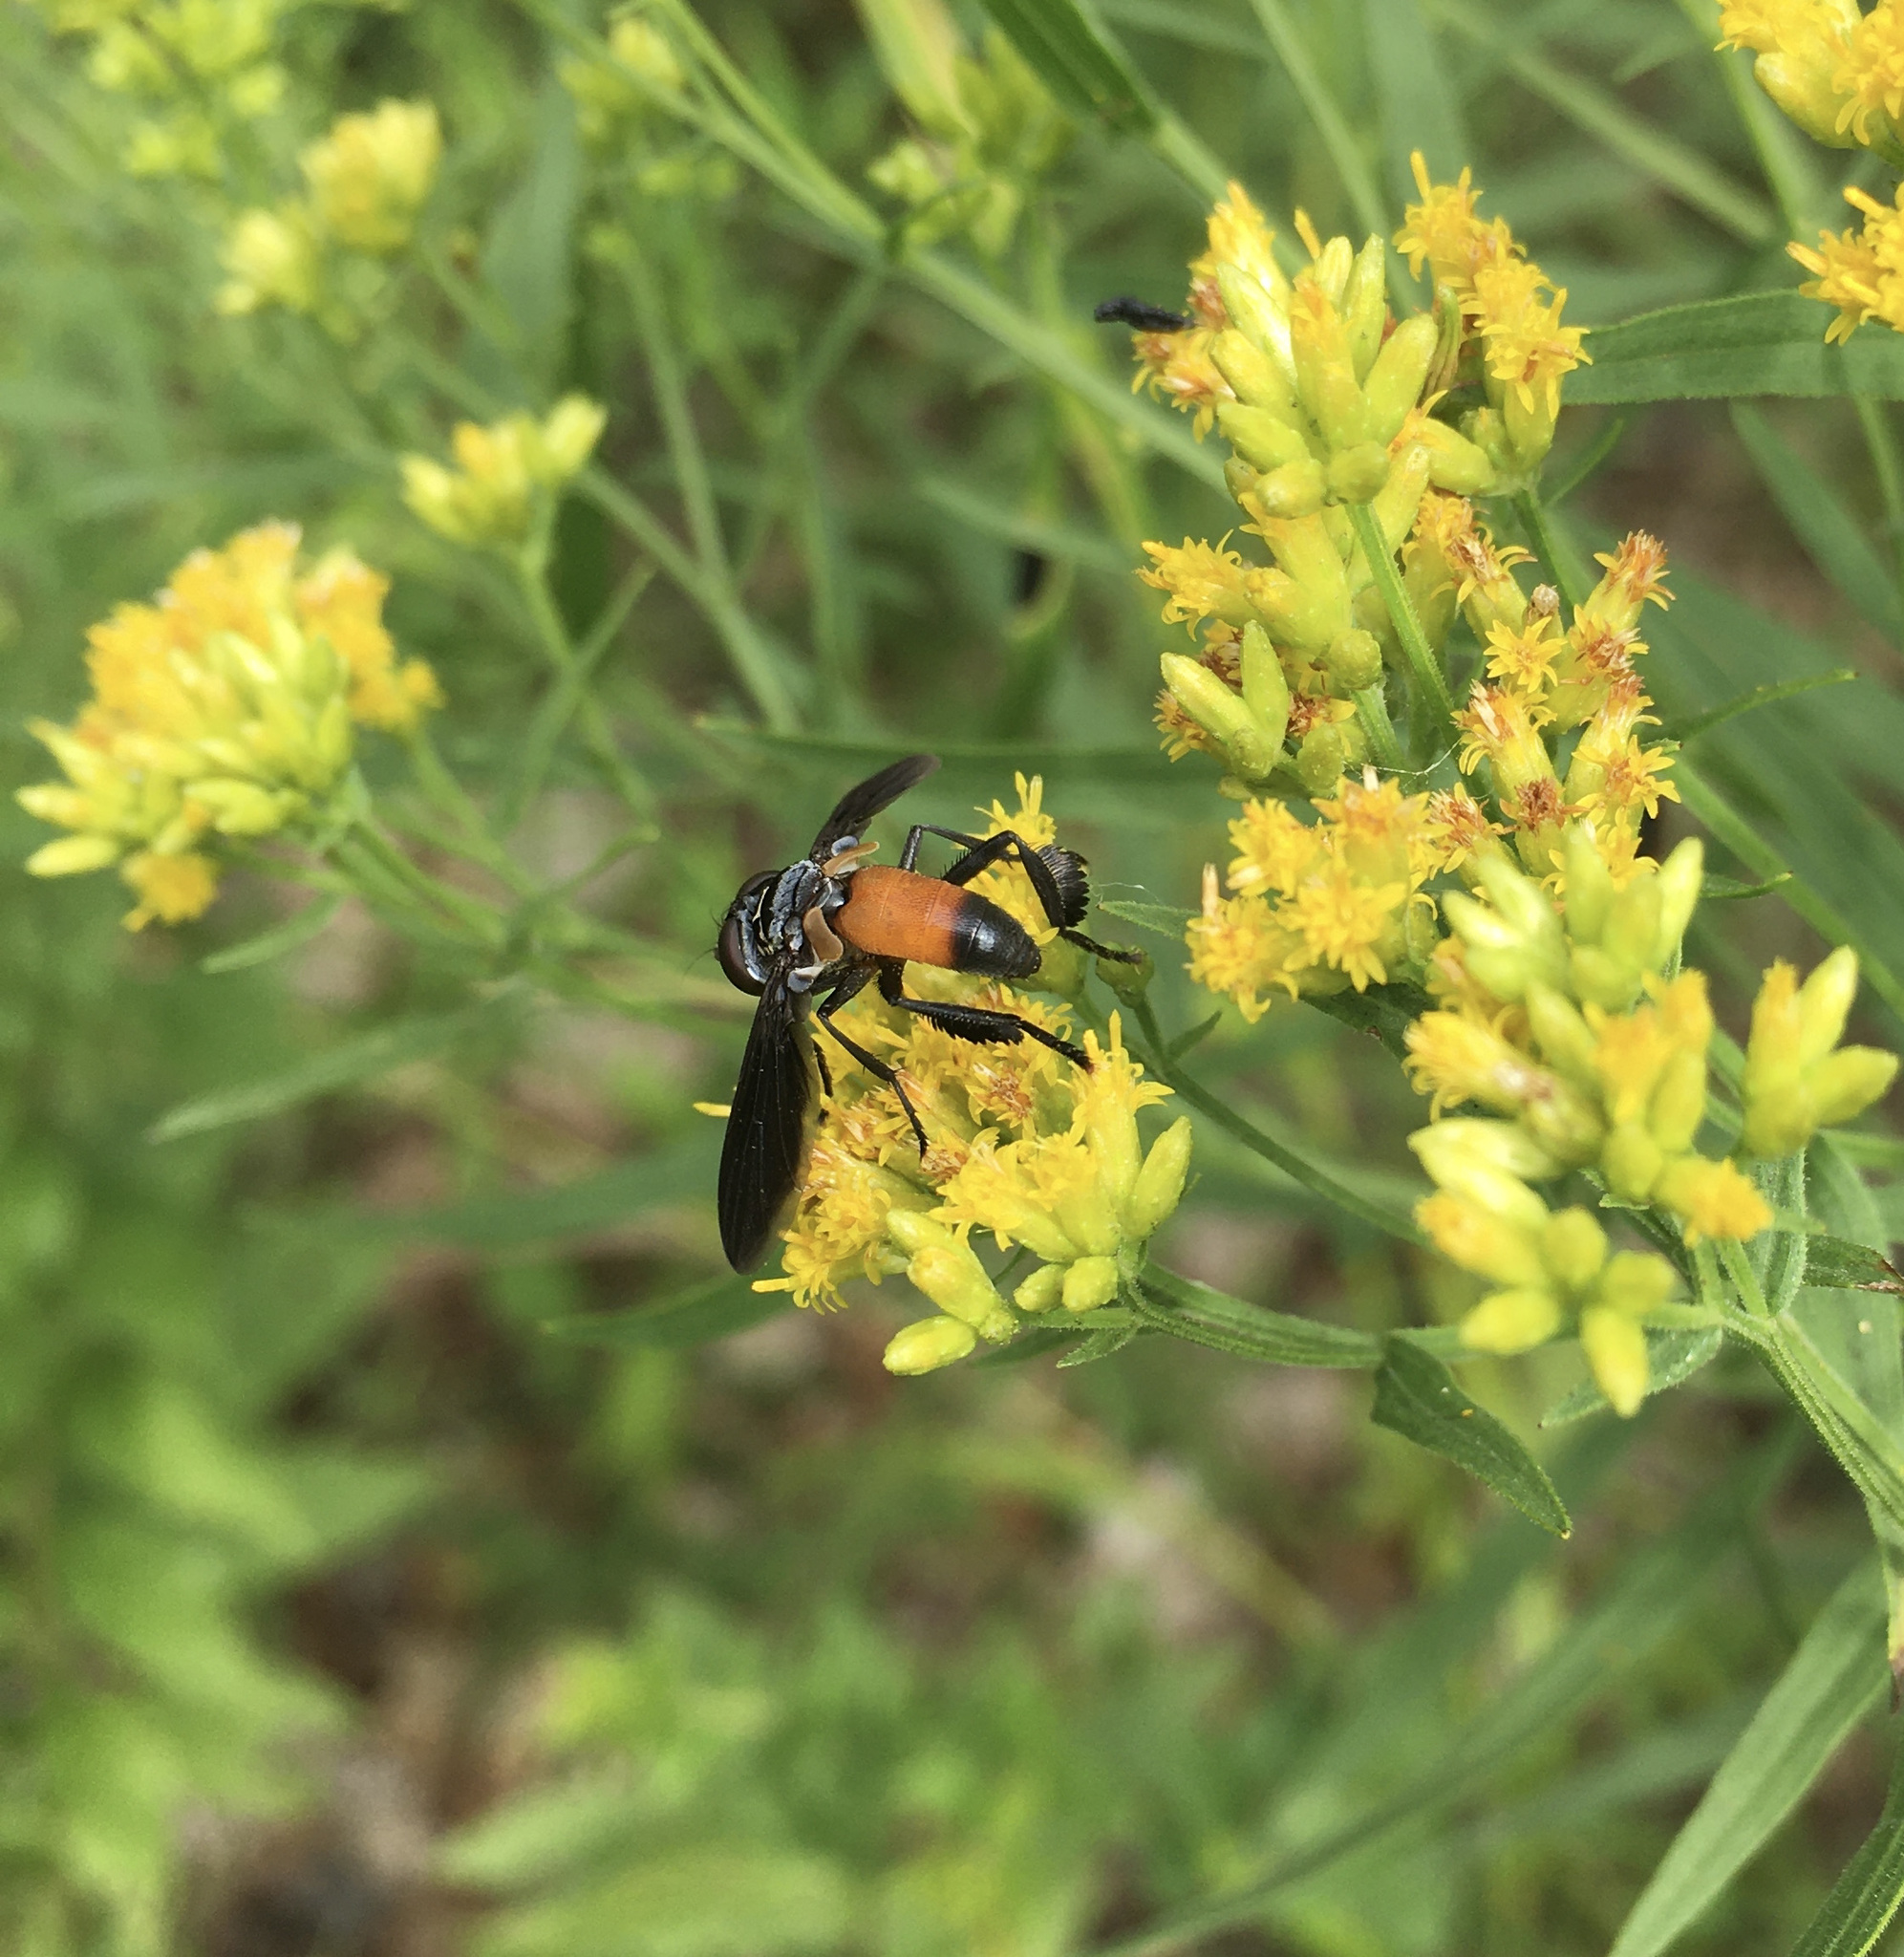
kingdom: Animalia
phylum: Arthropoda
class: Insecta
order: Diptera
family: Tachinidae
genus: Trichopoda
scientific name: Trichopoda pennipes
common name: Tachinid fly
